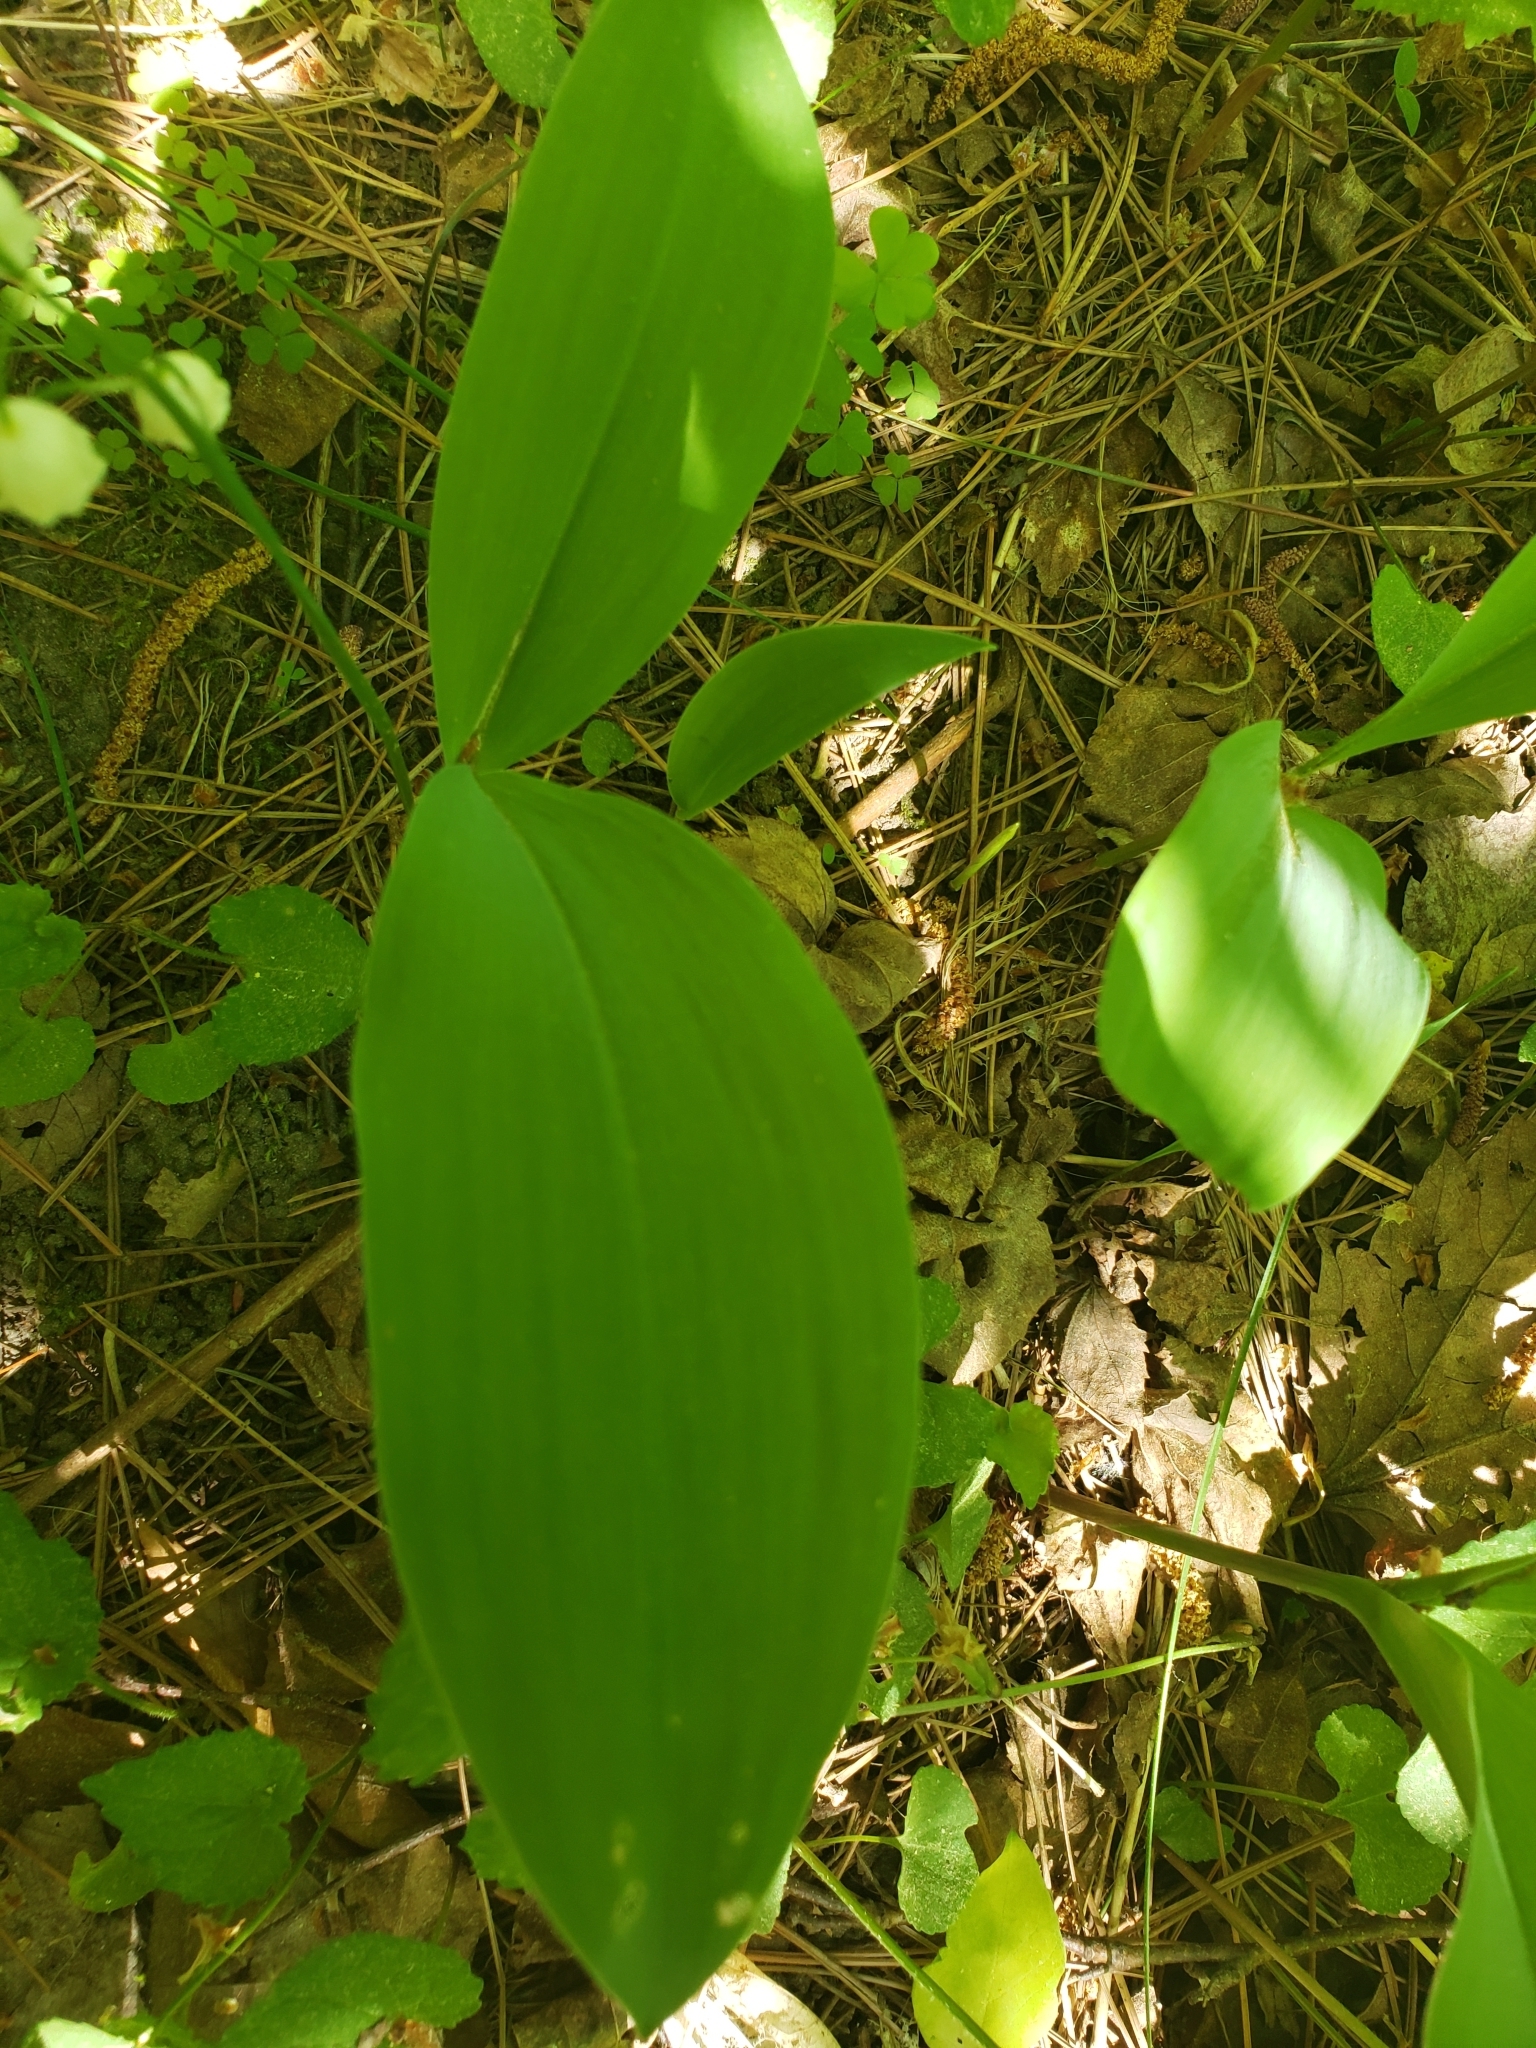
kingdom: Plantae
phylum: Tracheophyta
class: Liliopsida
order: Asparagales
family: Asparagaceae
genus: Convallaria
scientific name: Convallaria majalis
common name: Lily-of-the-valley
